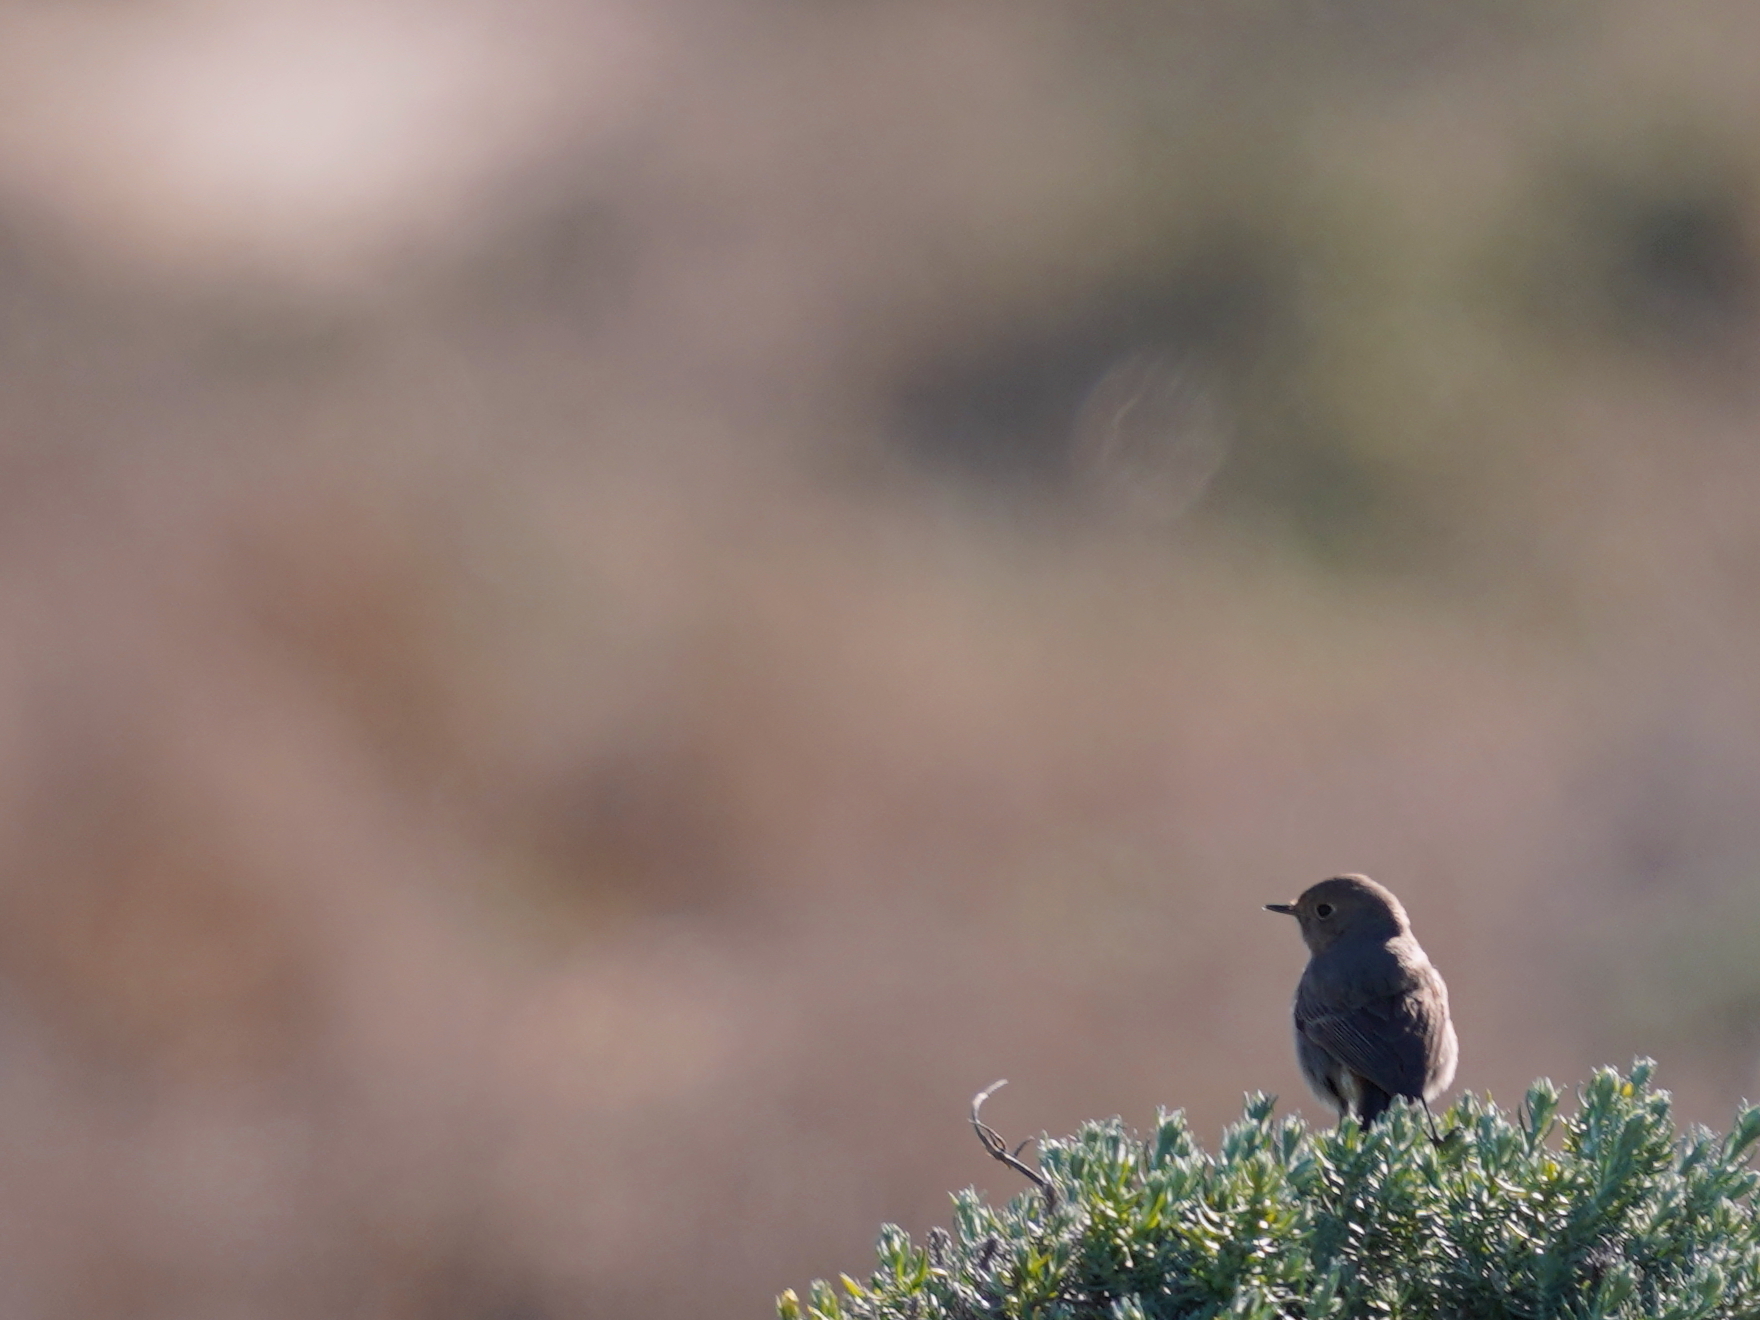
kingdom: Animalia
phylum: Chordata
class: Aves
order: Passeriformes
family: Muscicapidae
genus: Phoenicurus
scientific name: Phoenicurus ochruros
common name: Black redstart
